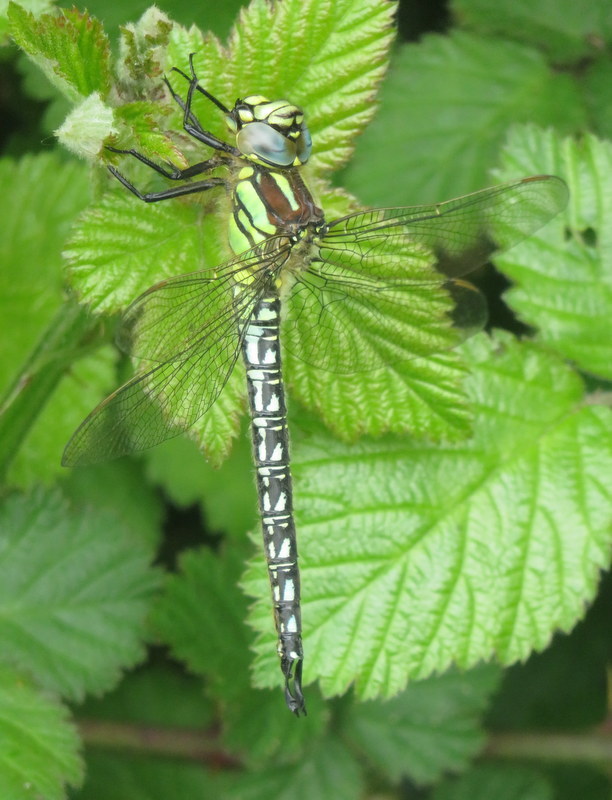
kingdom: Animalia
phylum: Arthropoda
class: Insecta
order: Odonata
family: Aeshnidae
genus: Brachytron
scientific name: Brachytron pratense
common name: Hairy hawker
